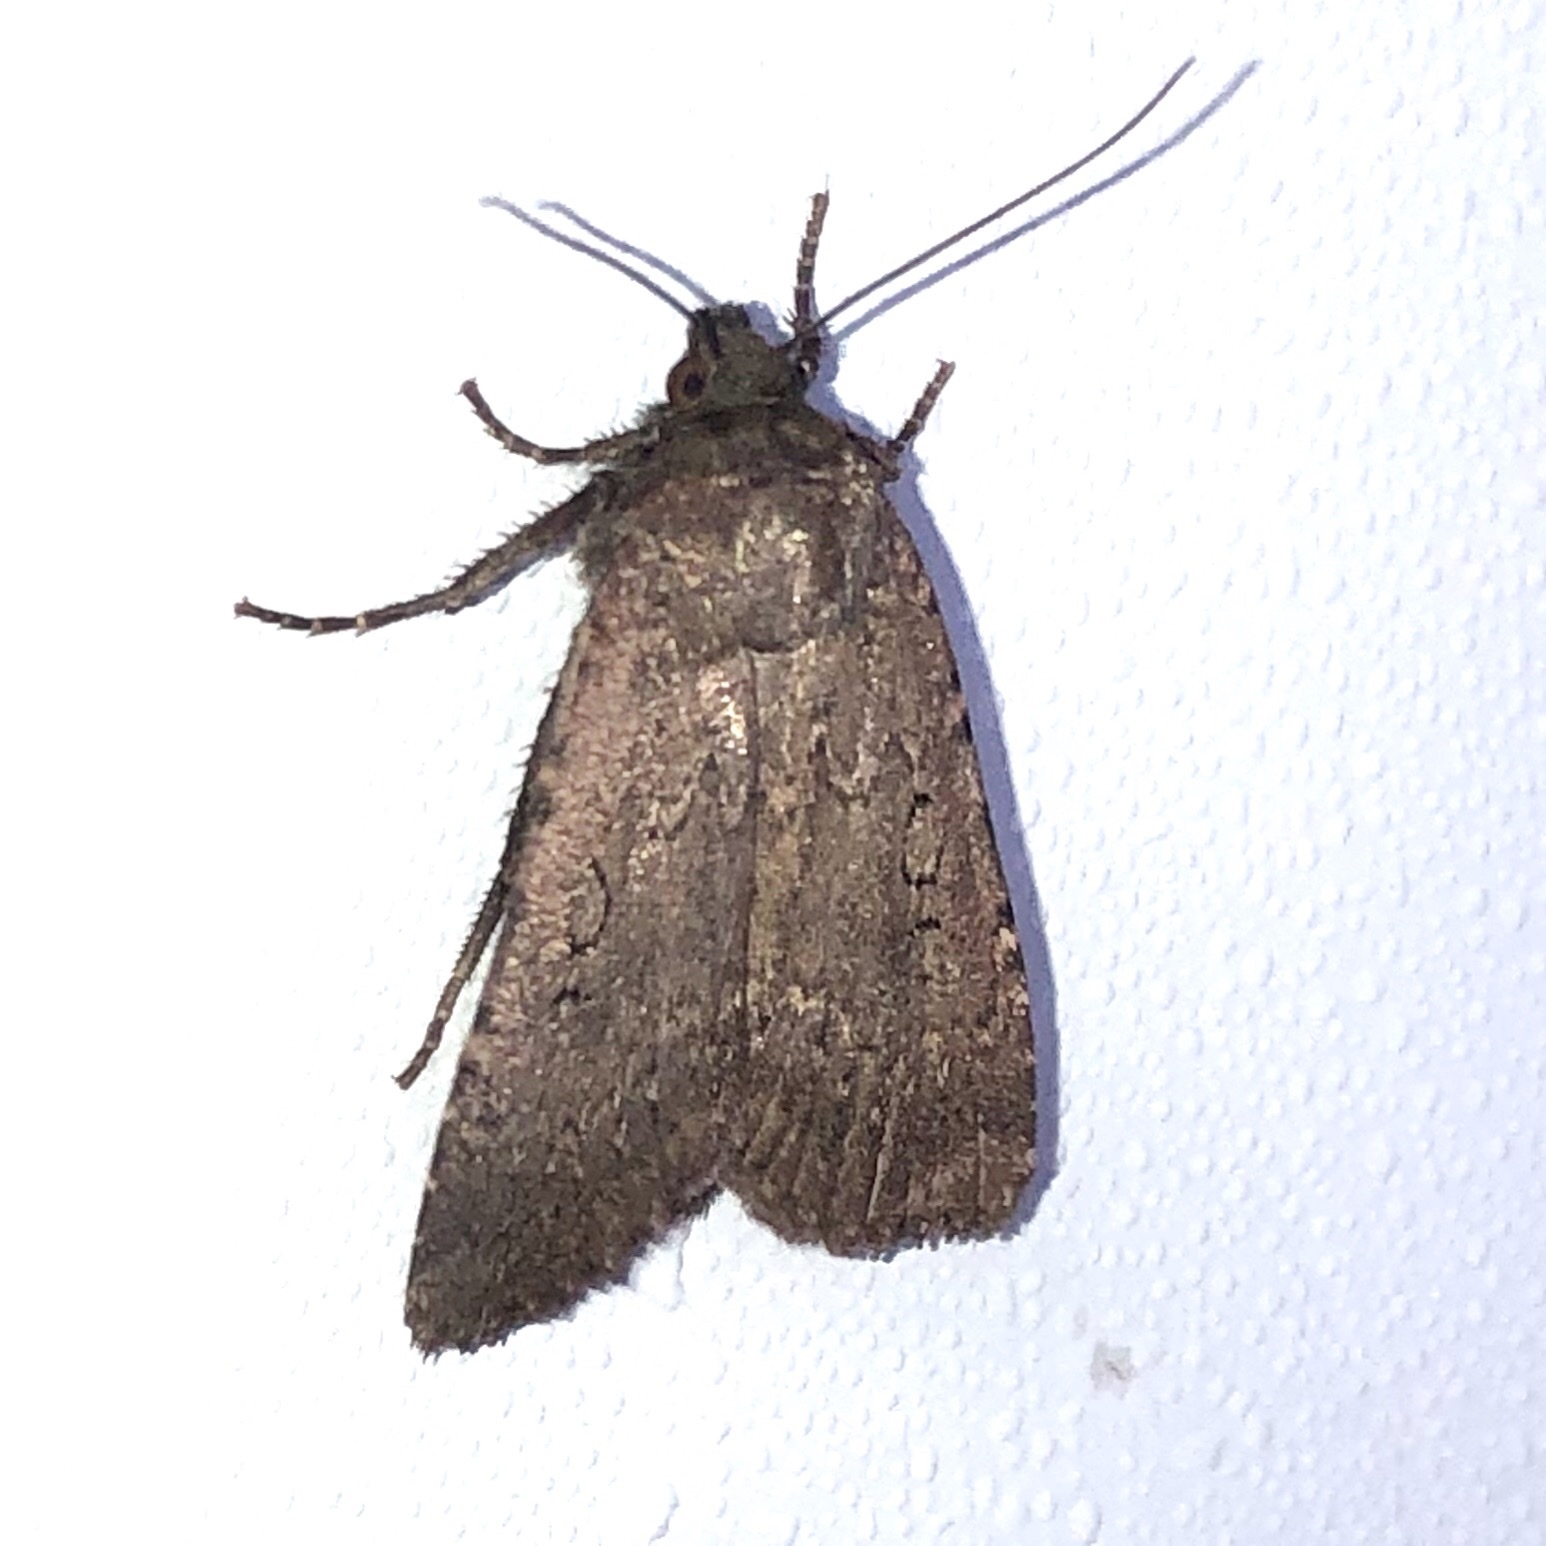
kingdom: Animalia
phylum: Arthropoda
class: Insecta
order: Lepidoptera
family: Noctuidae
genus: Spaelotis
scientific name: Spaelotis clandestina
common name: Clandestine dart
